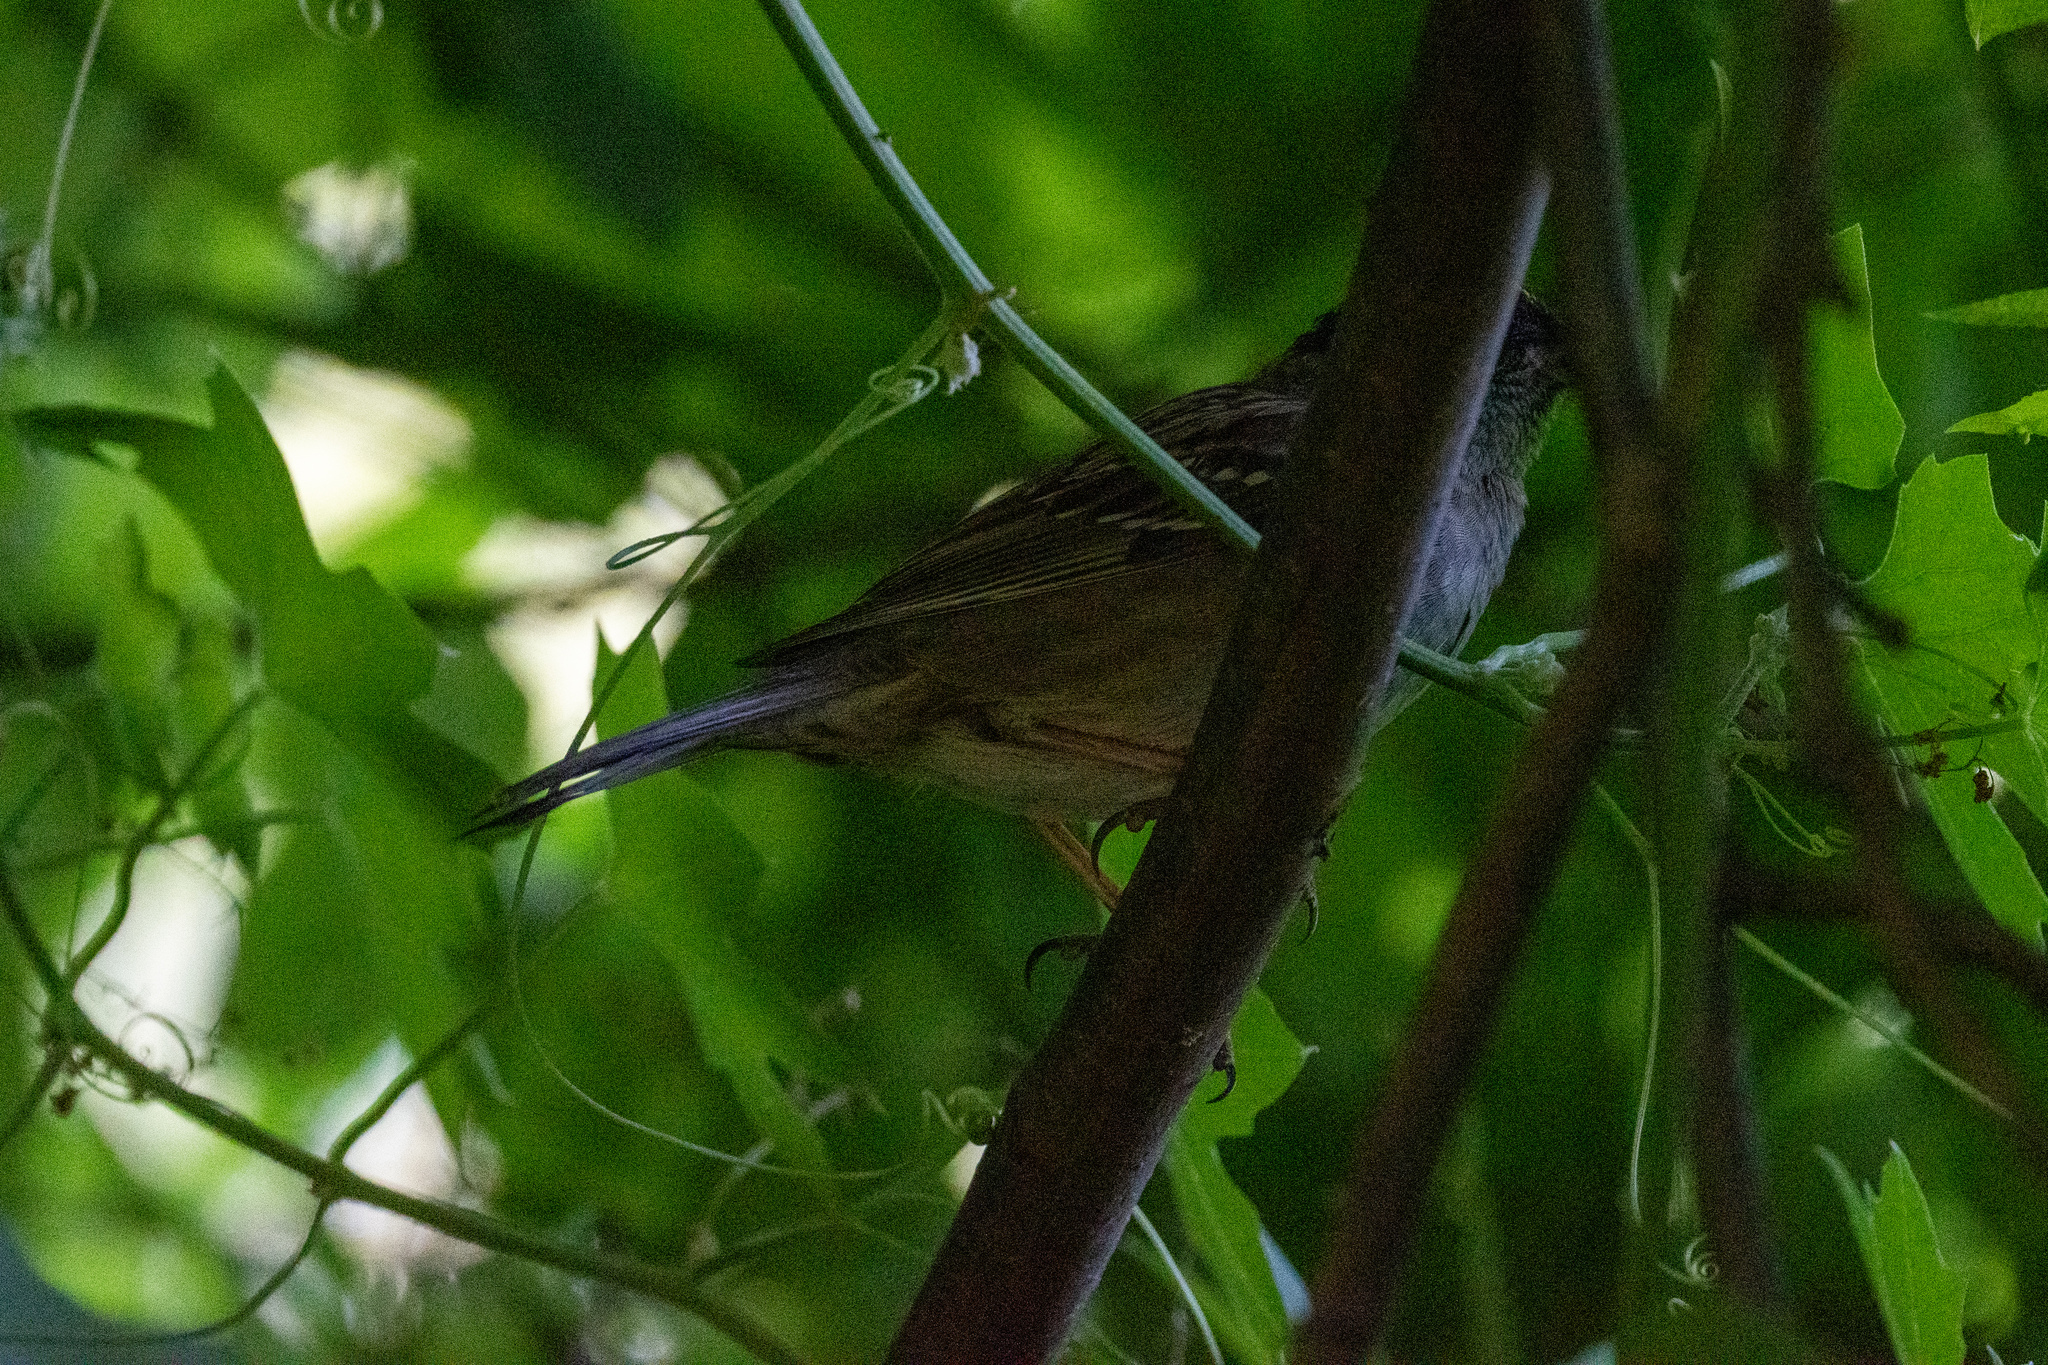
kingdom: Animalia
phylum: Chordata
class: Aves
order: Passeriformes
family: Passerellidae
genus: Zonotrichia
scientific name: Zonotrichia atricapilla
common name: Golden-crowned sparrow
